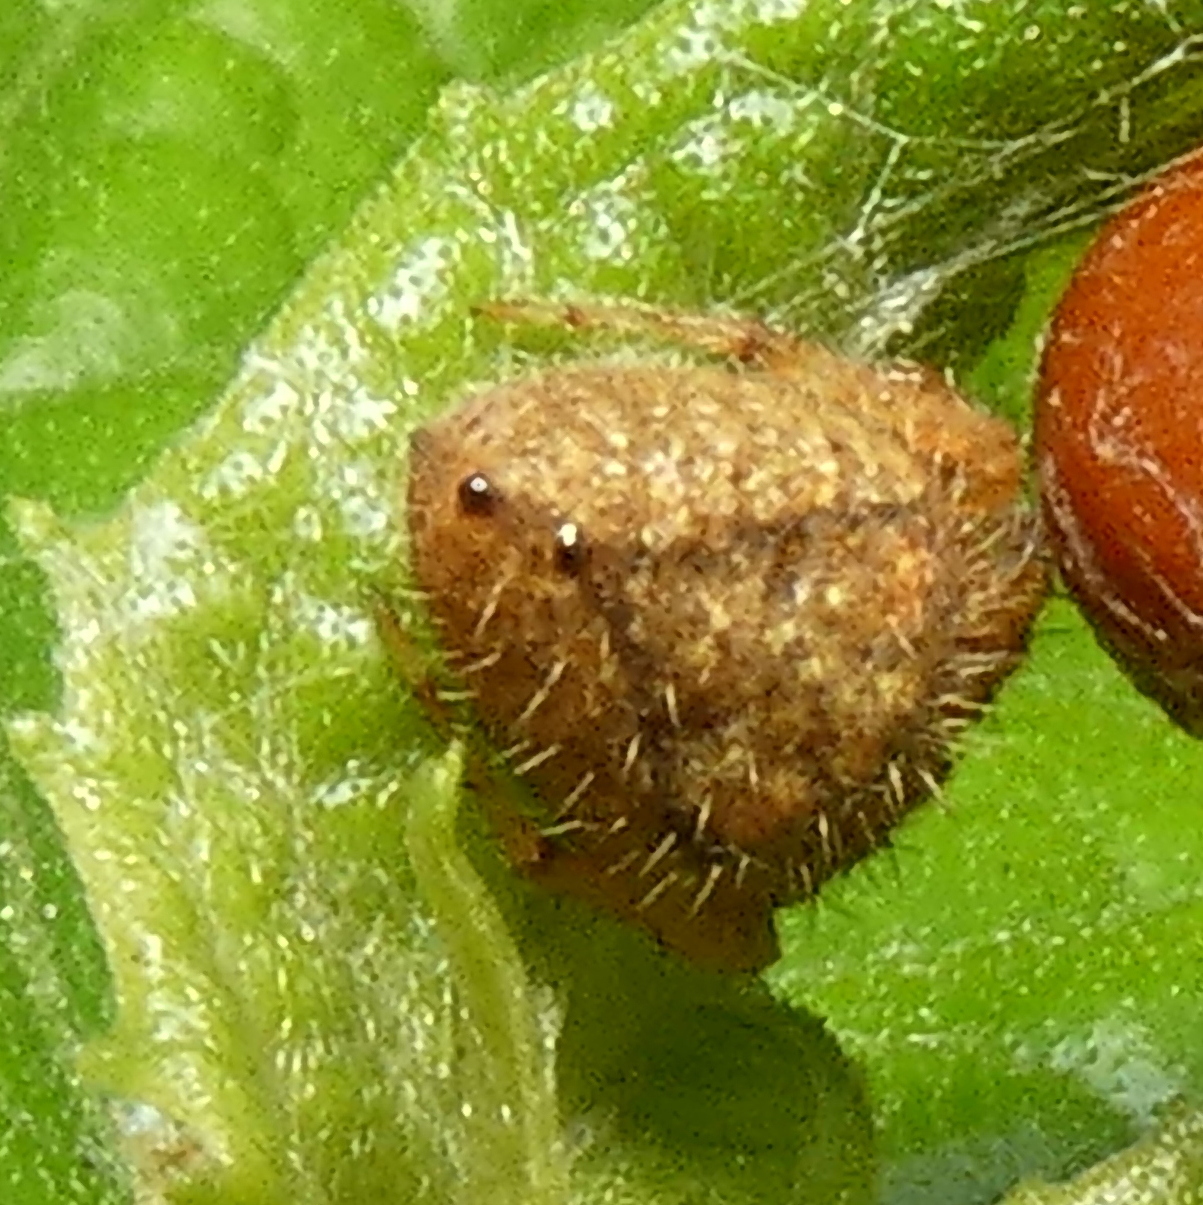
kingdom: Animalia
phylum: Arthropoda
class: Arachnida
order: Araneae
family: Araneidae
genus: Eriophora
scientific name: Eriophora edax
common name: Orb weavers
